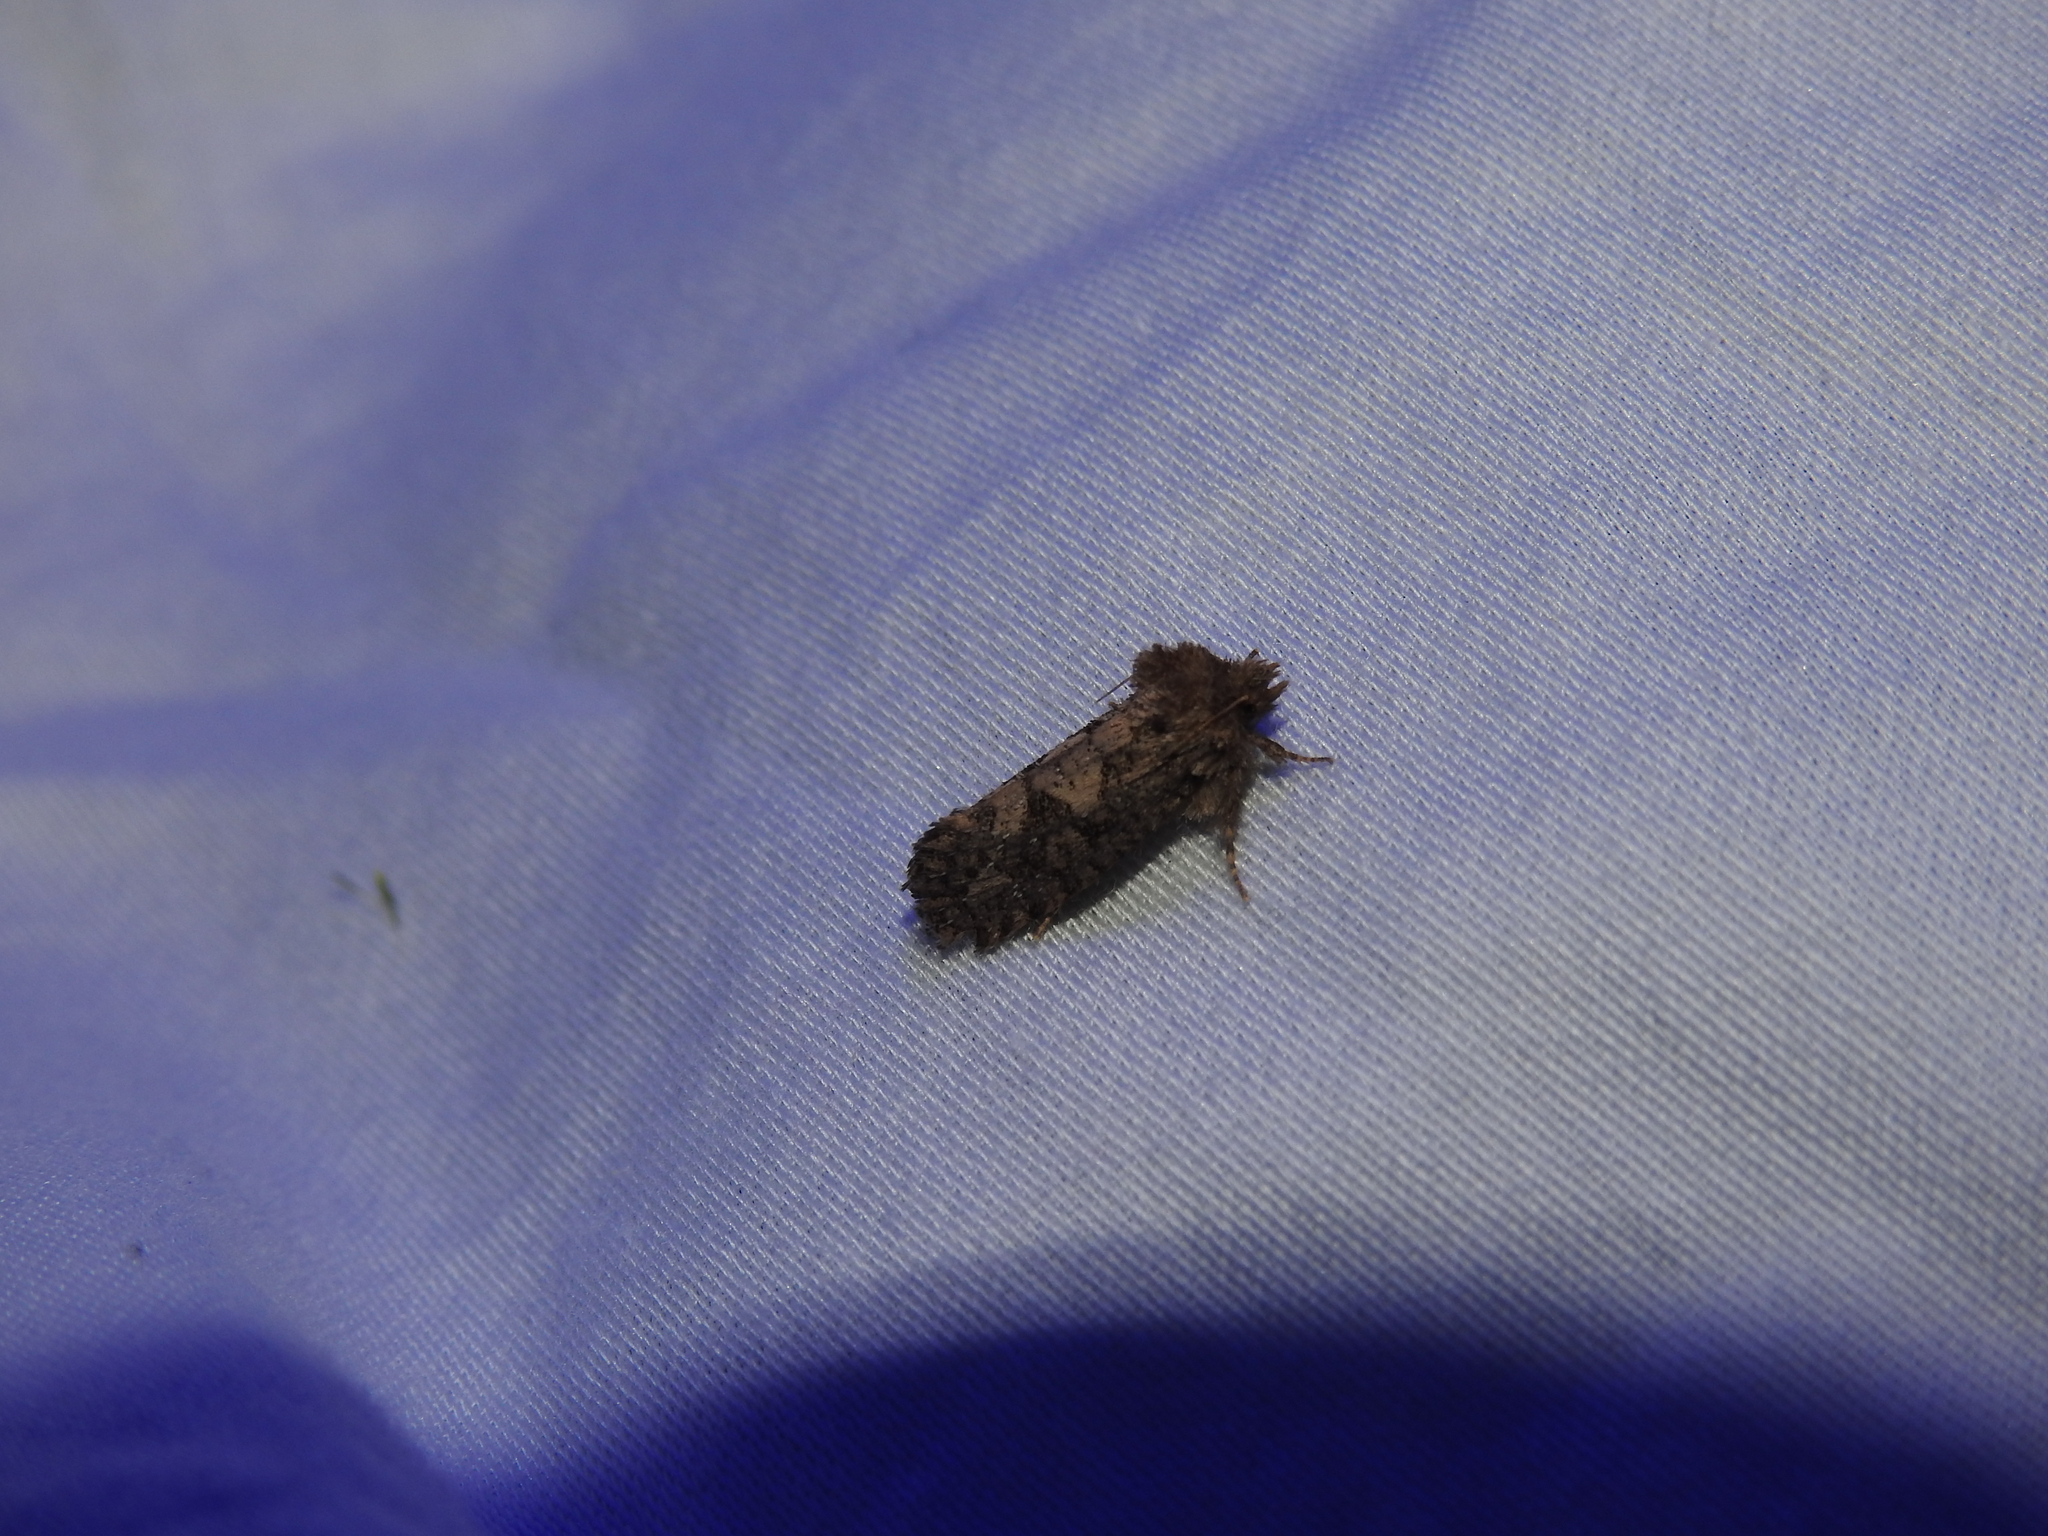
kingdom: Animalia
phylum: Arthropoda
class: Insecta
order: Lepidoptera
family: Tineidae
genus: Acrolophus
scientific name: Acrolophus arcanella
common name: Arcane grass tubeworm moth
